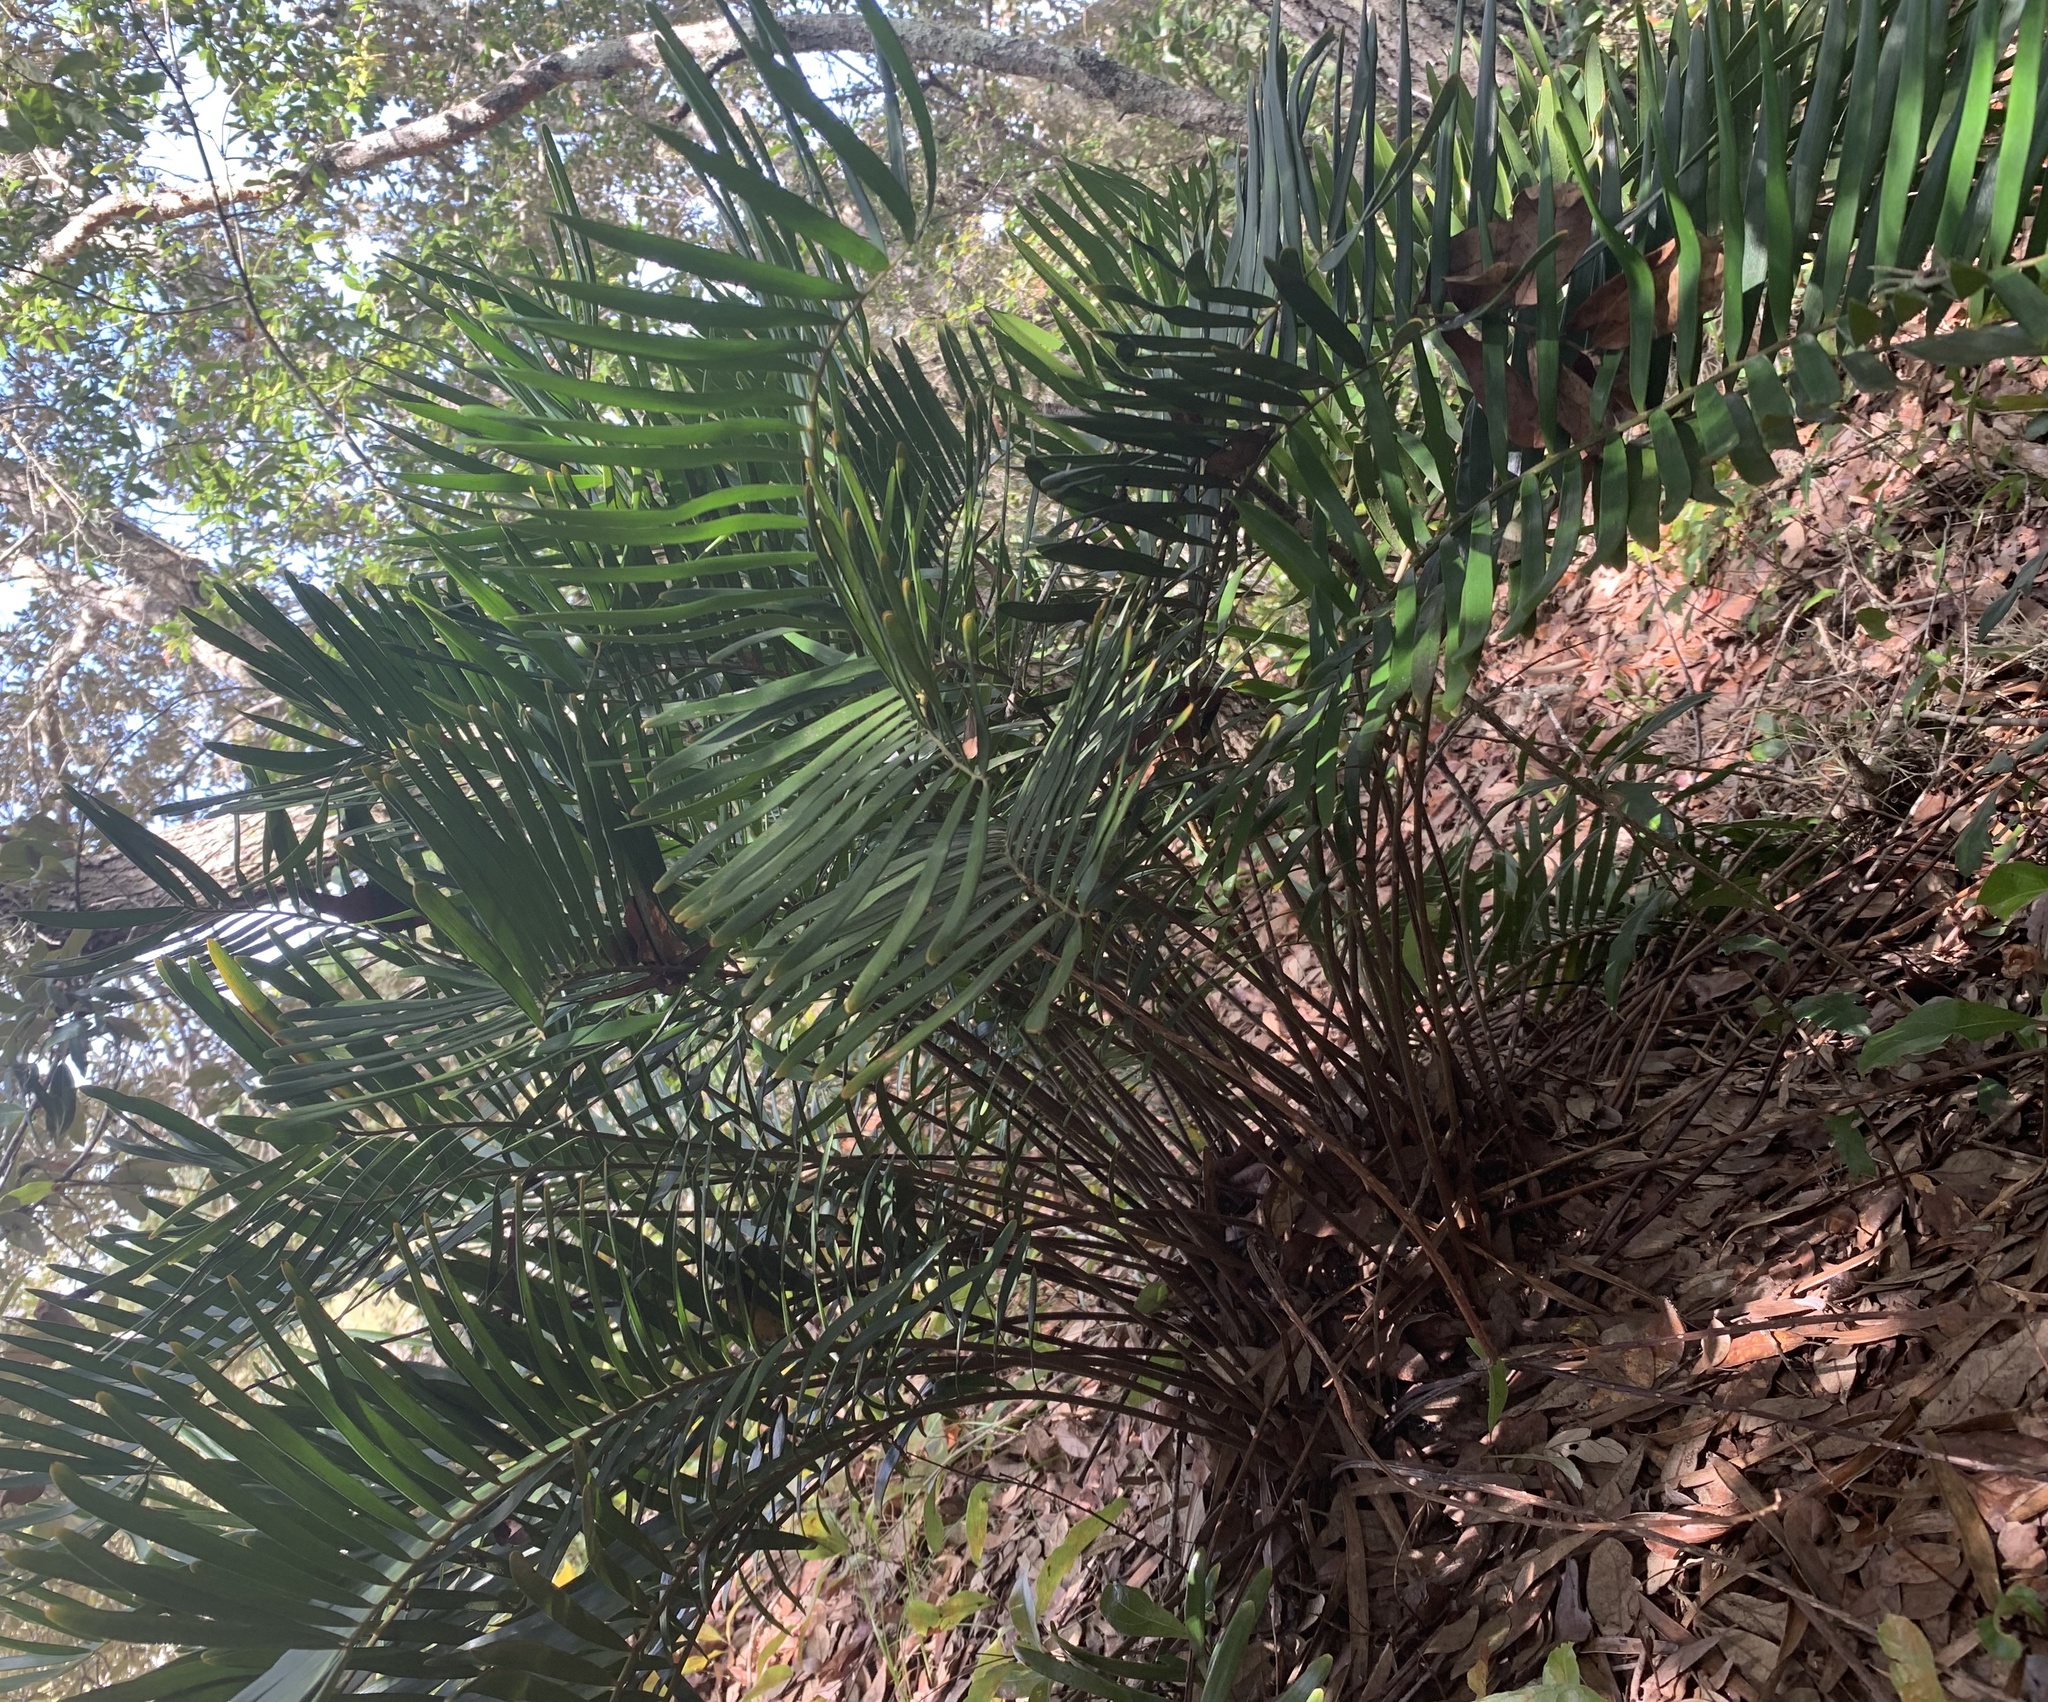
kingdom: Plantae
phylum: Tracheophyta
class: Cycadopsida
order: Cycadales
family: Zamiaceae
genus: Zamia
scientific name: Zamia integrifolia
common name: Florida arrowroot
